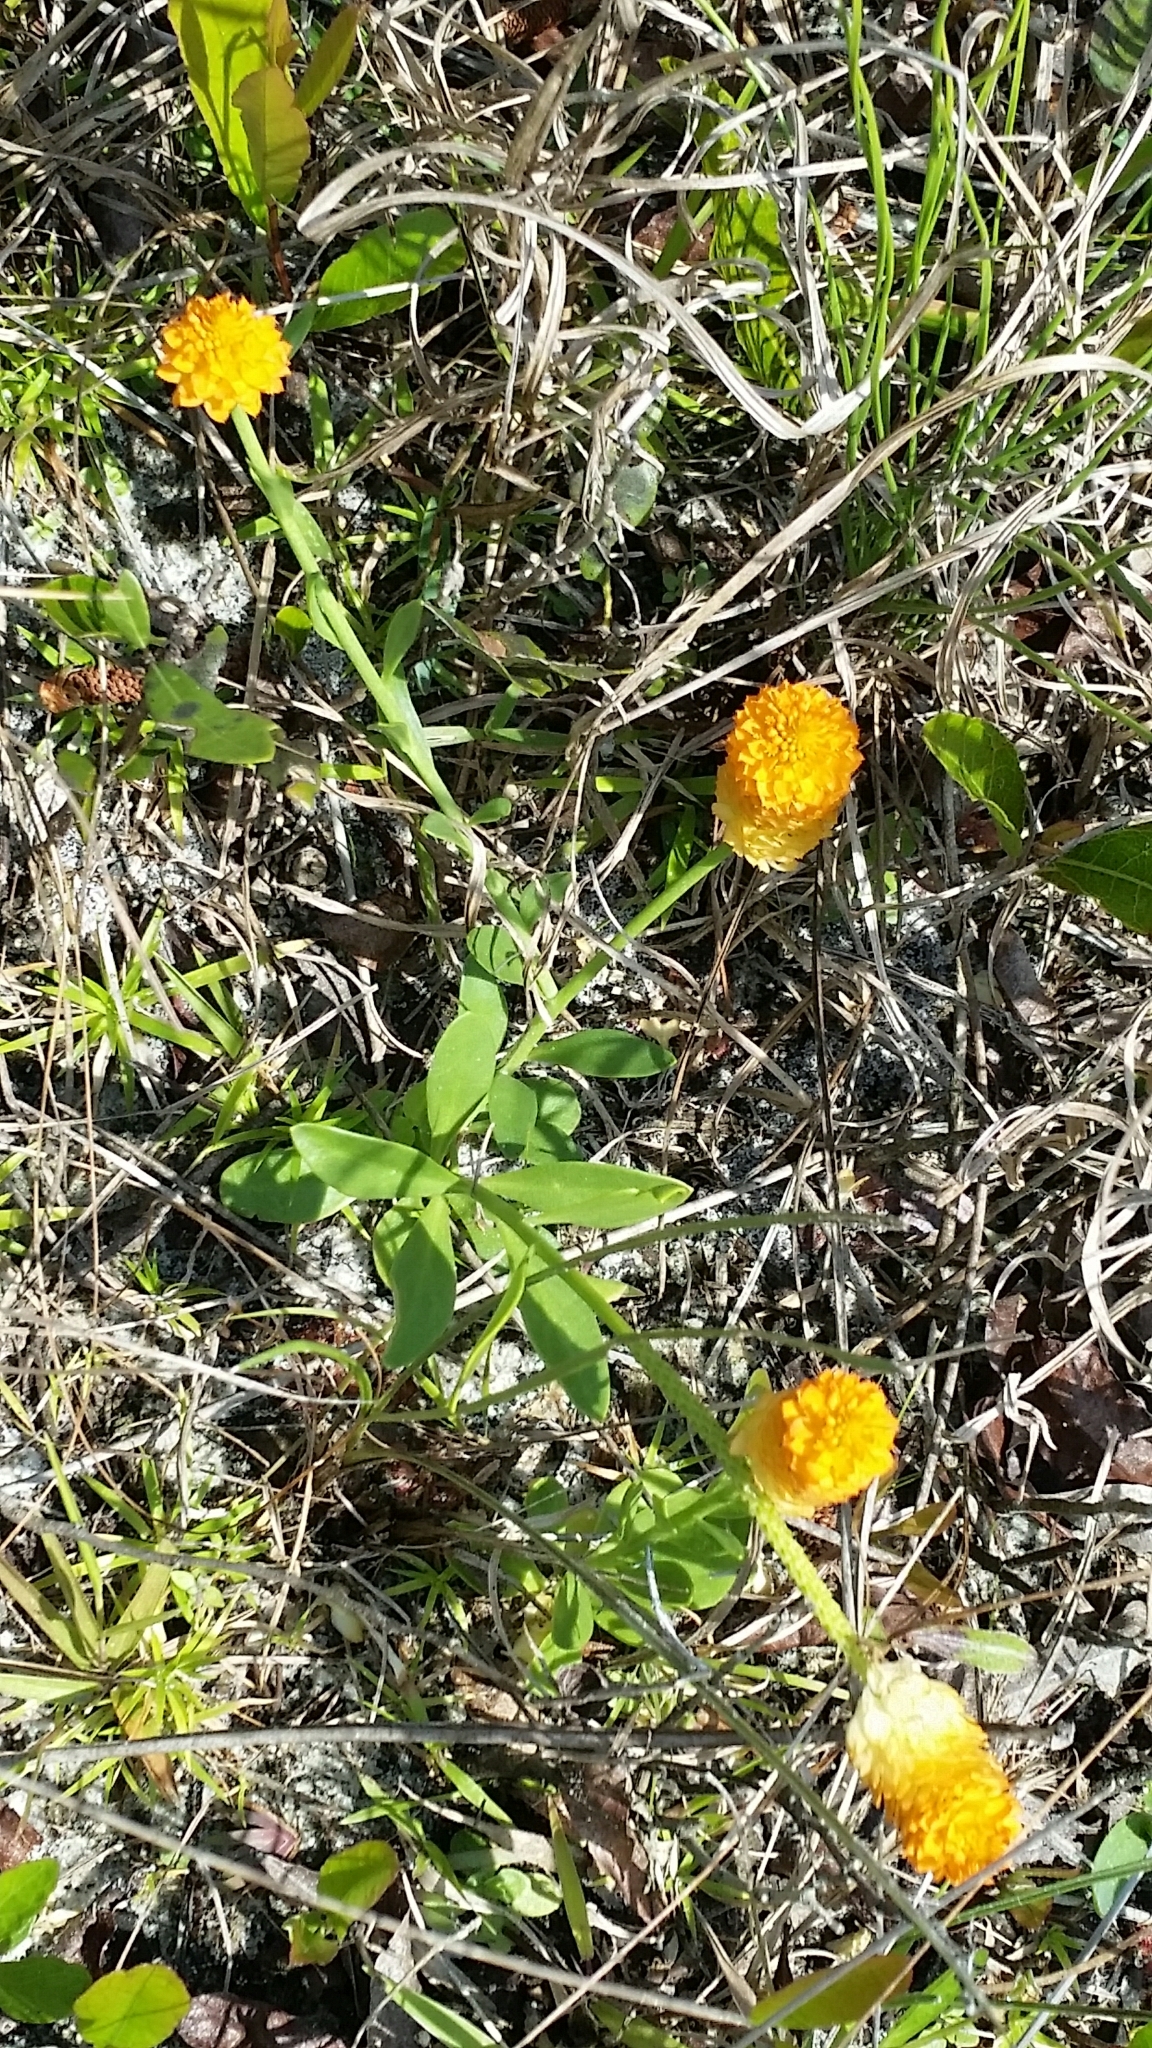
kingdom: Plantae
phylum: Tracheophyta
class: Magnoliopsida
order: Fabales
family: Polygalaceae
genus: Polygala
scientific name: Polygala lutea
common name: Orange milkwort
